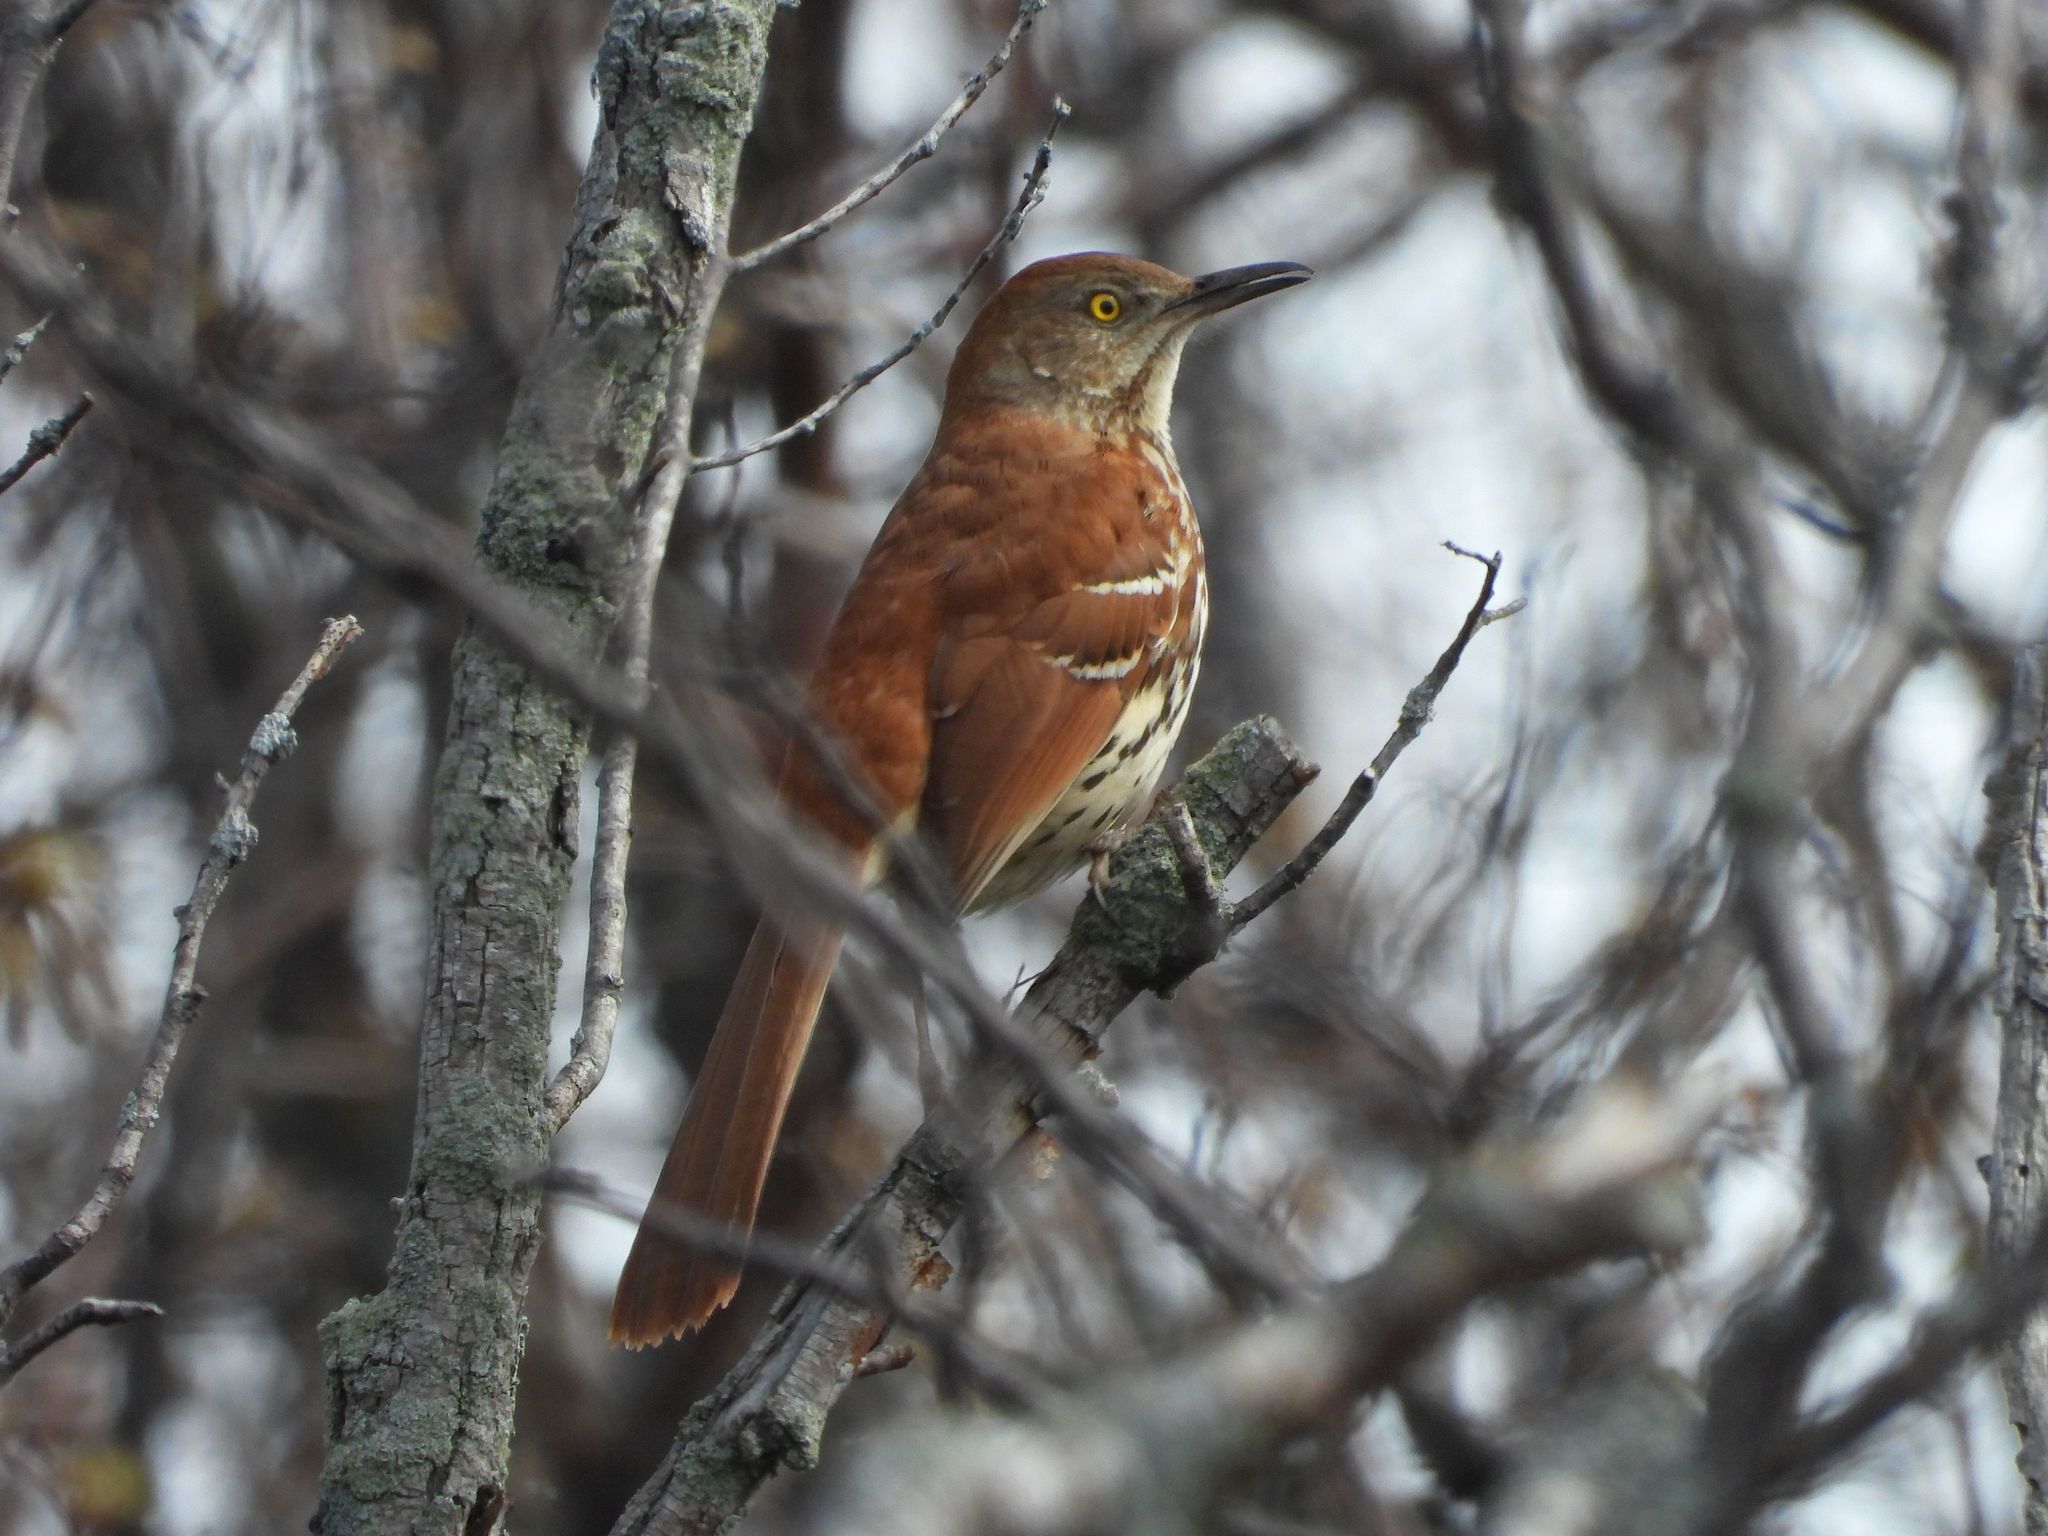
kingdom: Animalia
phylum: Chordata
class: Aves
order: Passeriformes
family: Mimidae
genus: Toxostoma
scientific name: Toxostoma rufum
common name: Brown thrasher
